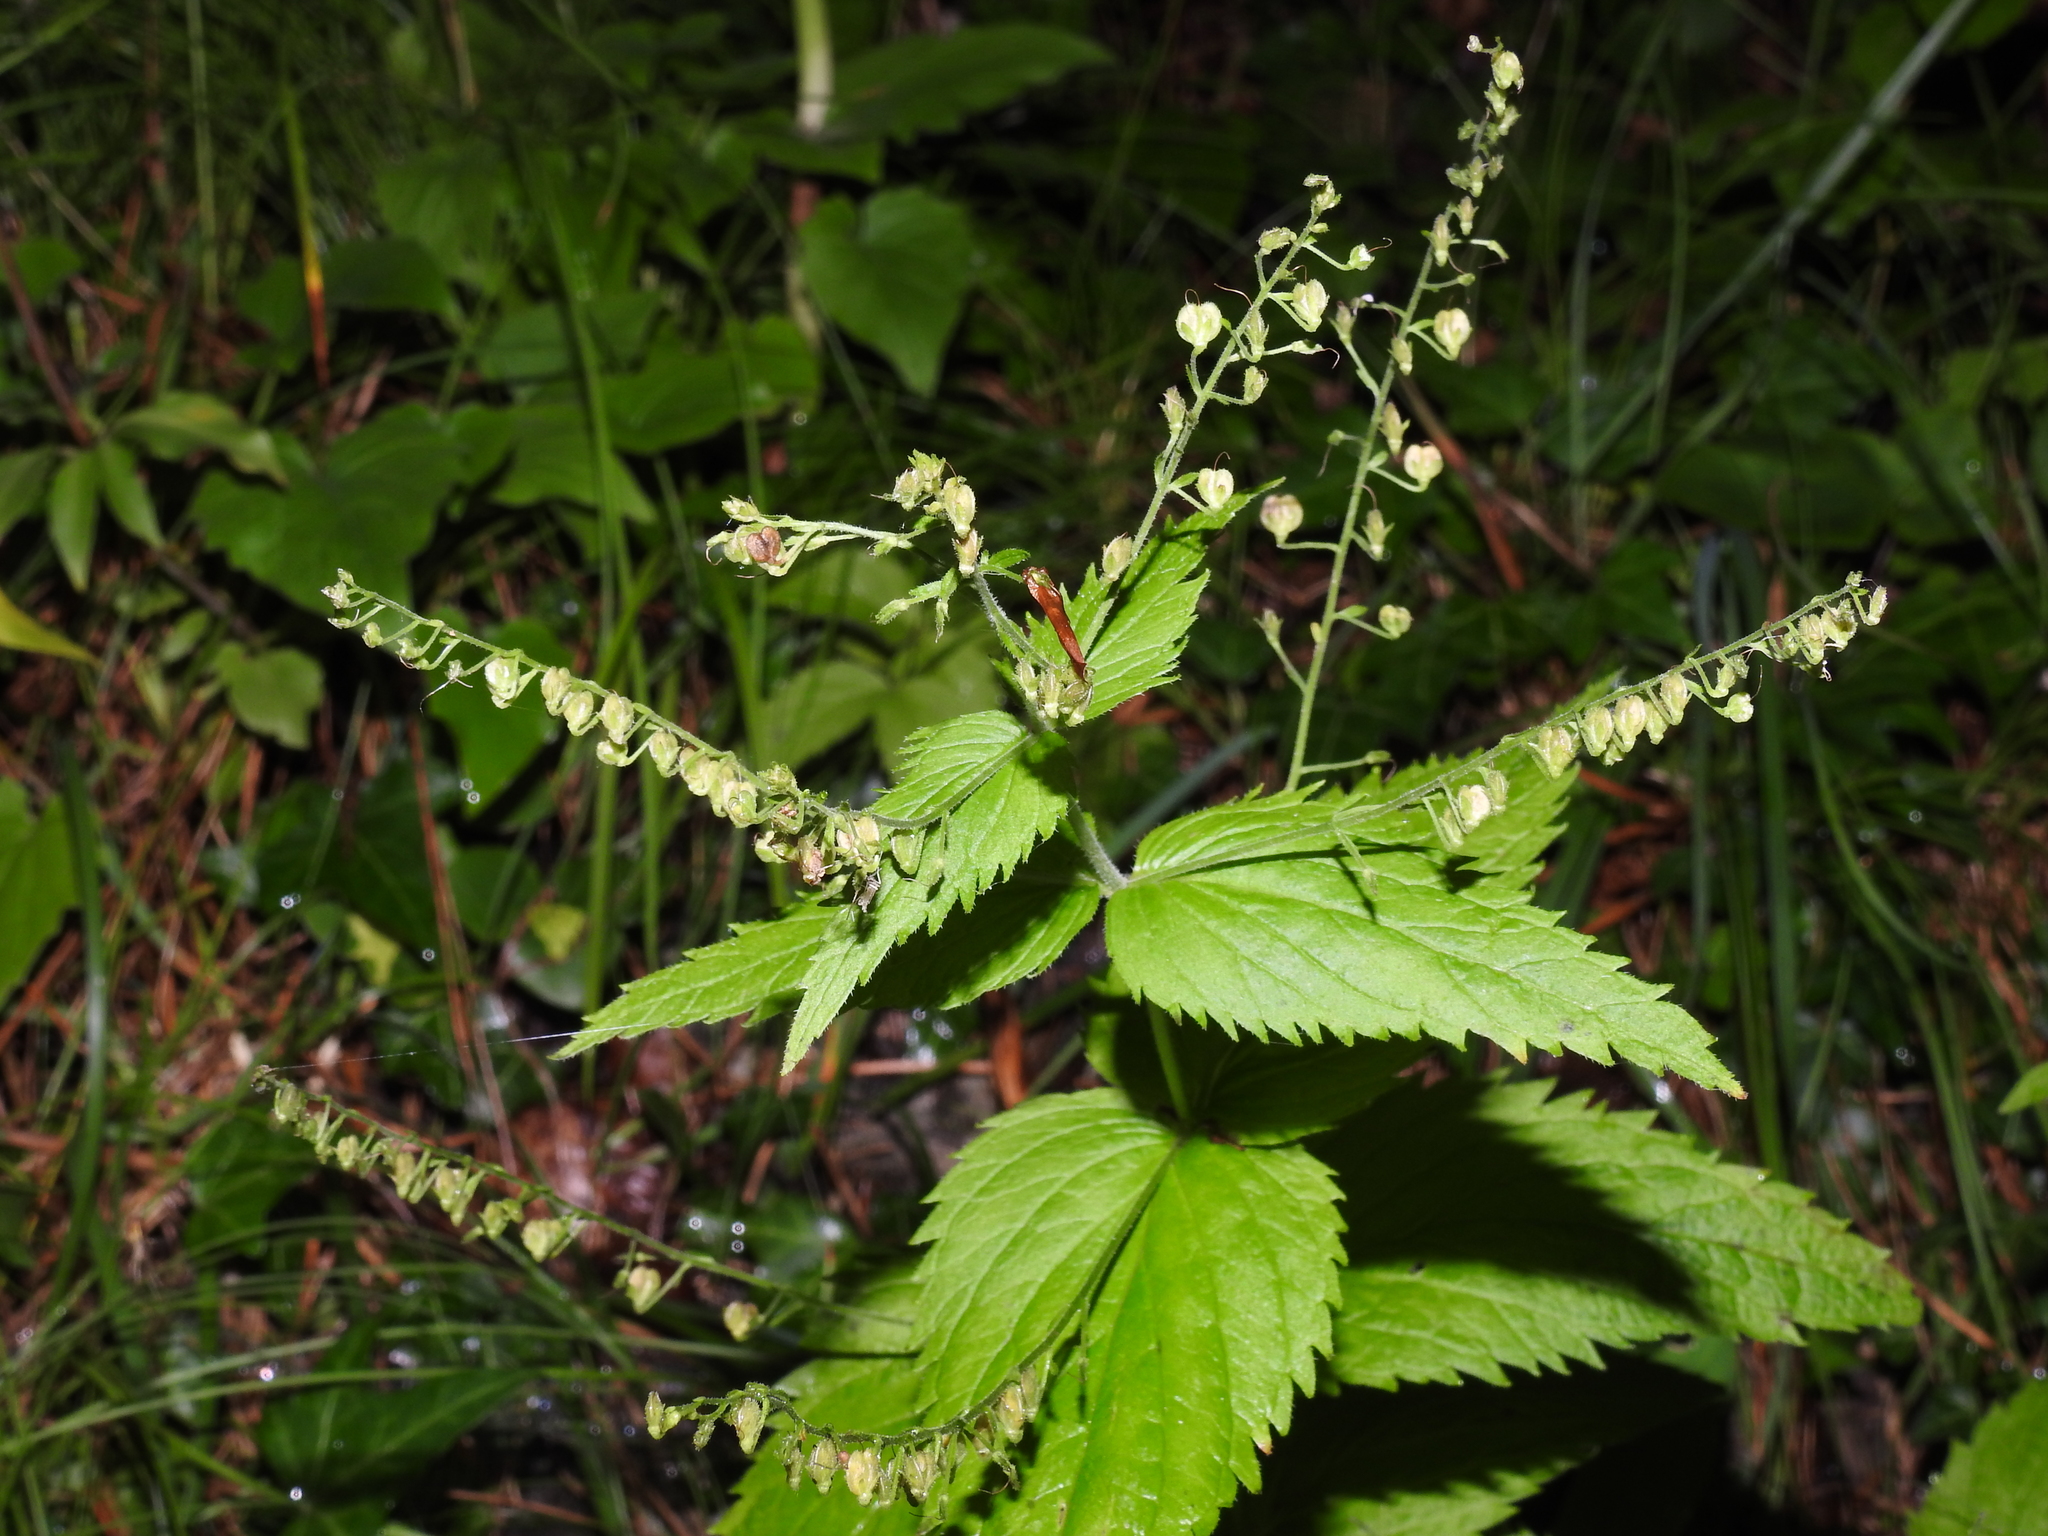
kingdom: Plantae
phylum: Tracheophyta
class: Magnoliopsida
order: Lamiales
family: Plantaginaceae
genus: Veronica
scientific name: Veronica urticifolia
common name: Nettle-leaf speedwell
